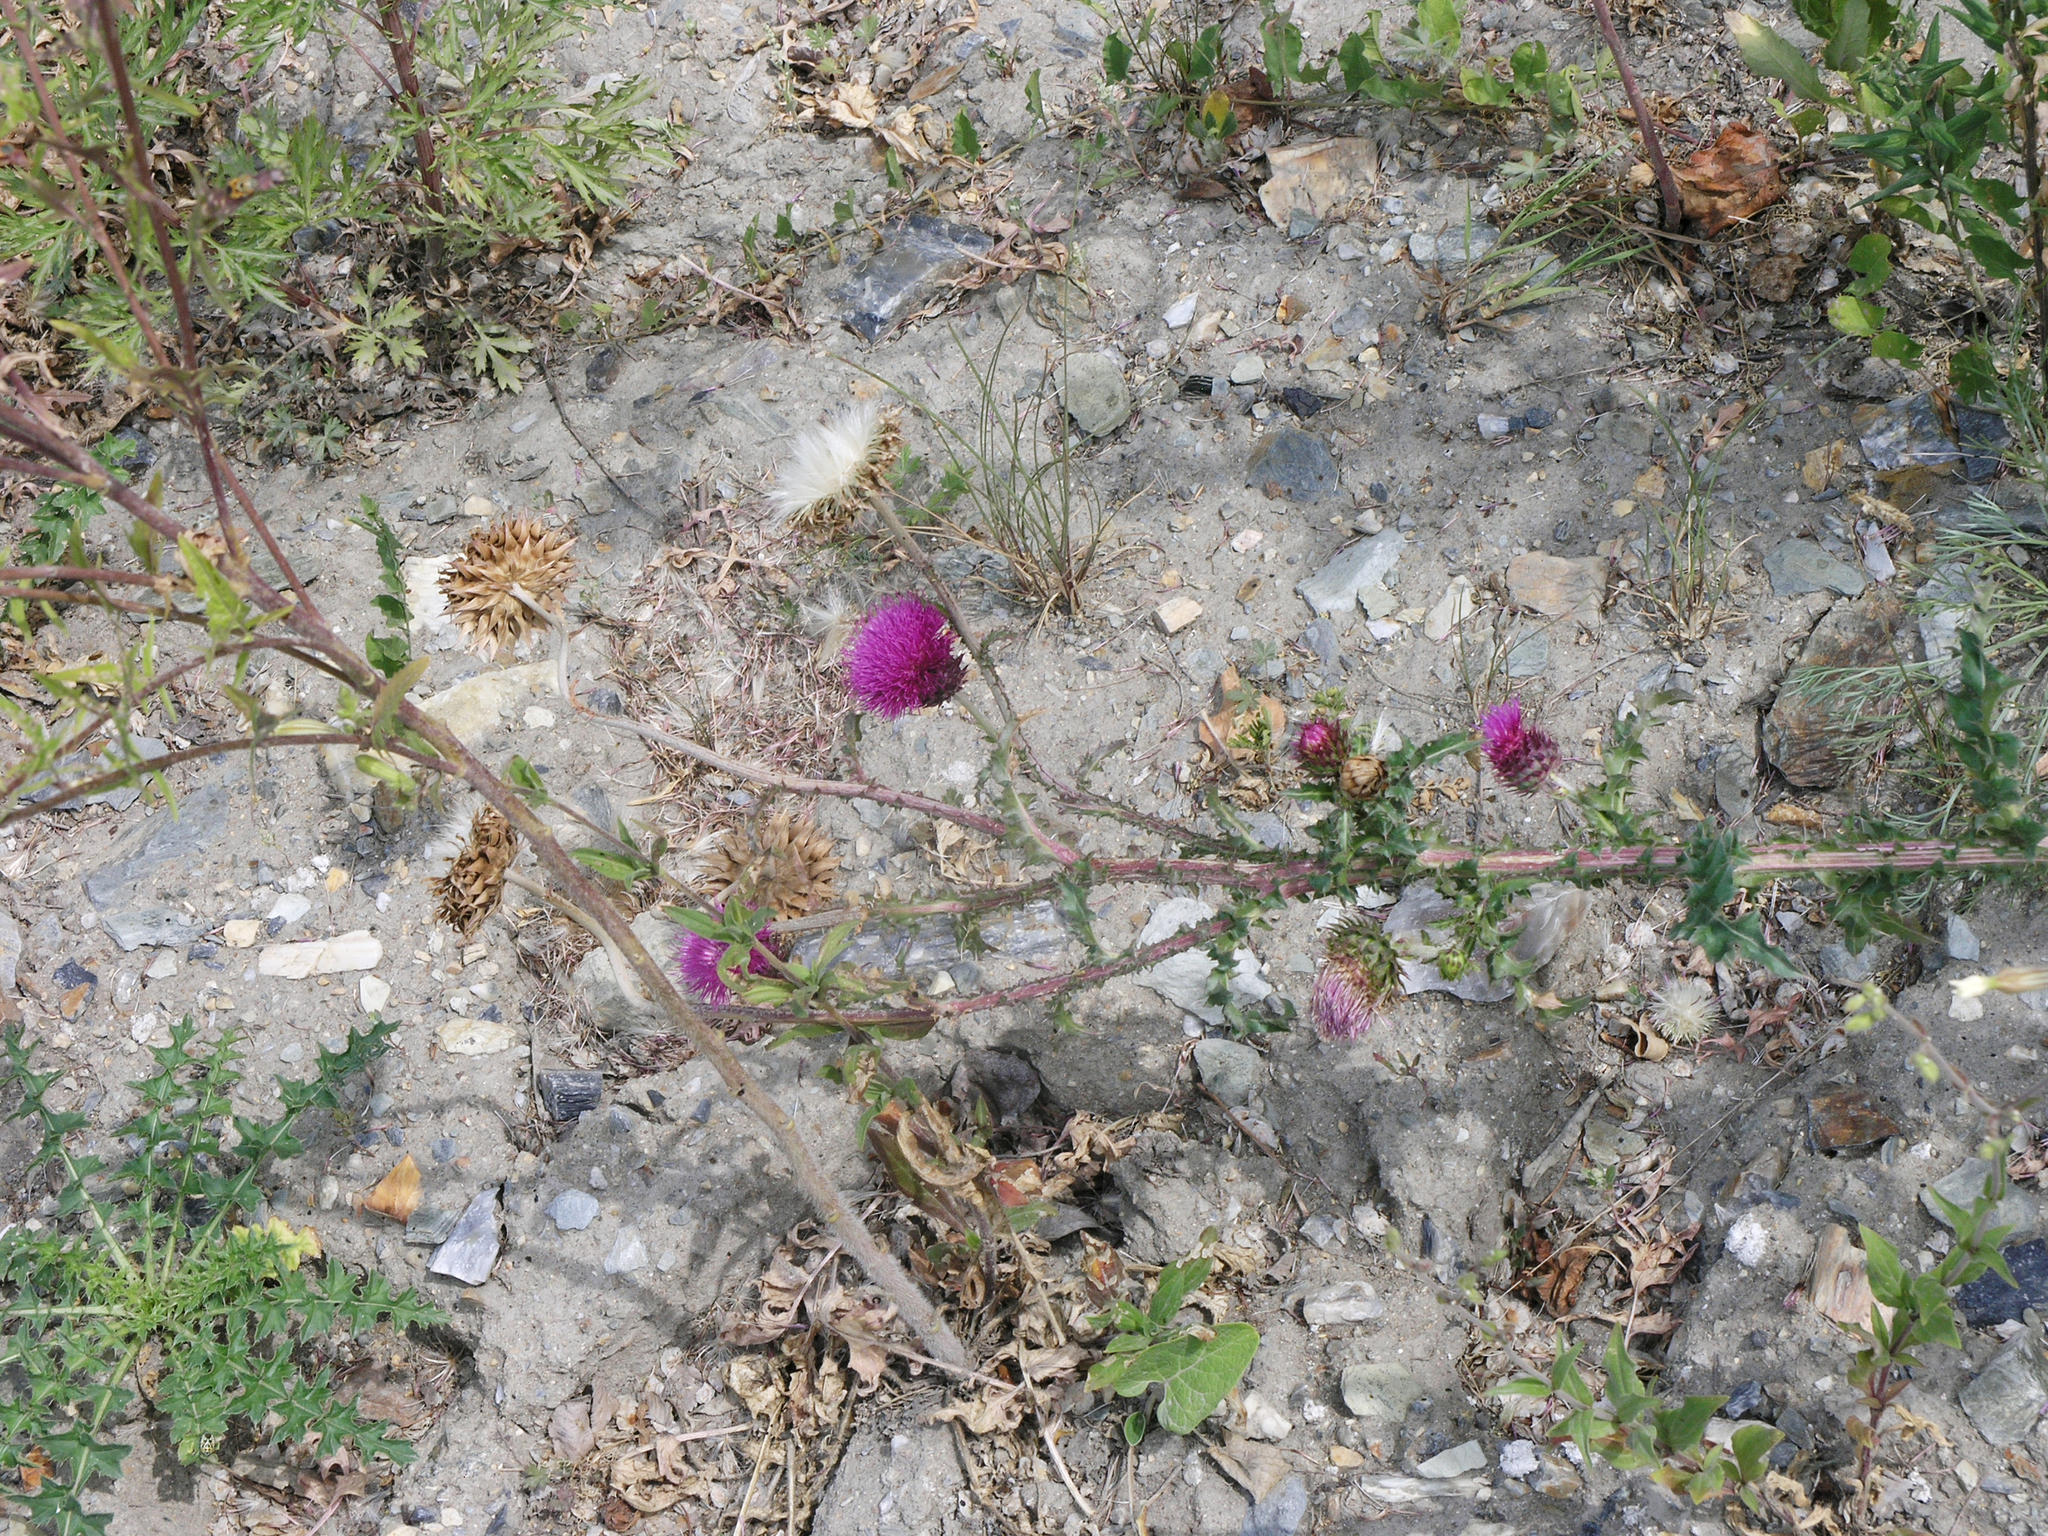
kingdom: Plantae
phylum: Tracheophyta
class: Magnoliopsida
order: Asterales
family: Asteraceae
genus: Carduus
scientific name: Carduus nutans
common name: Musk thistle
